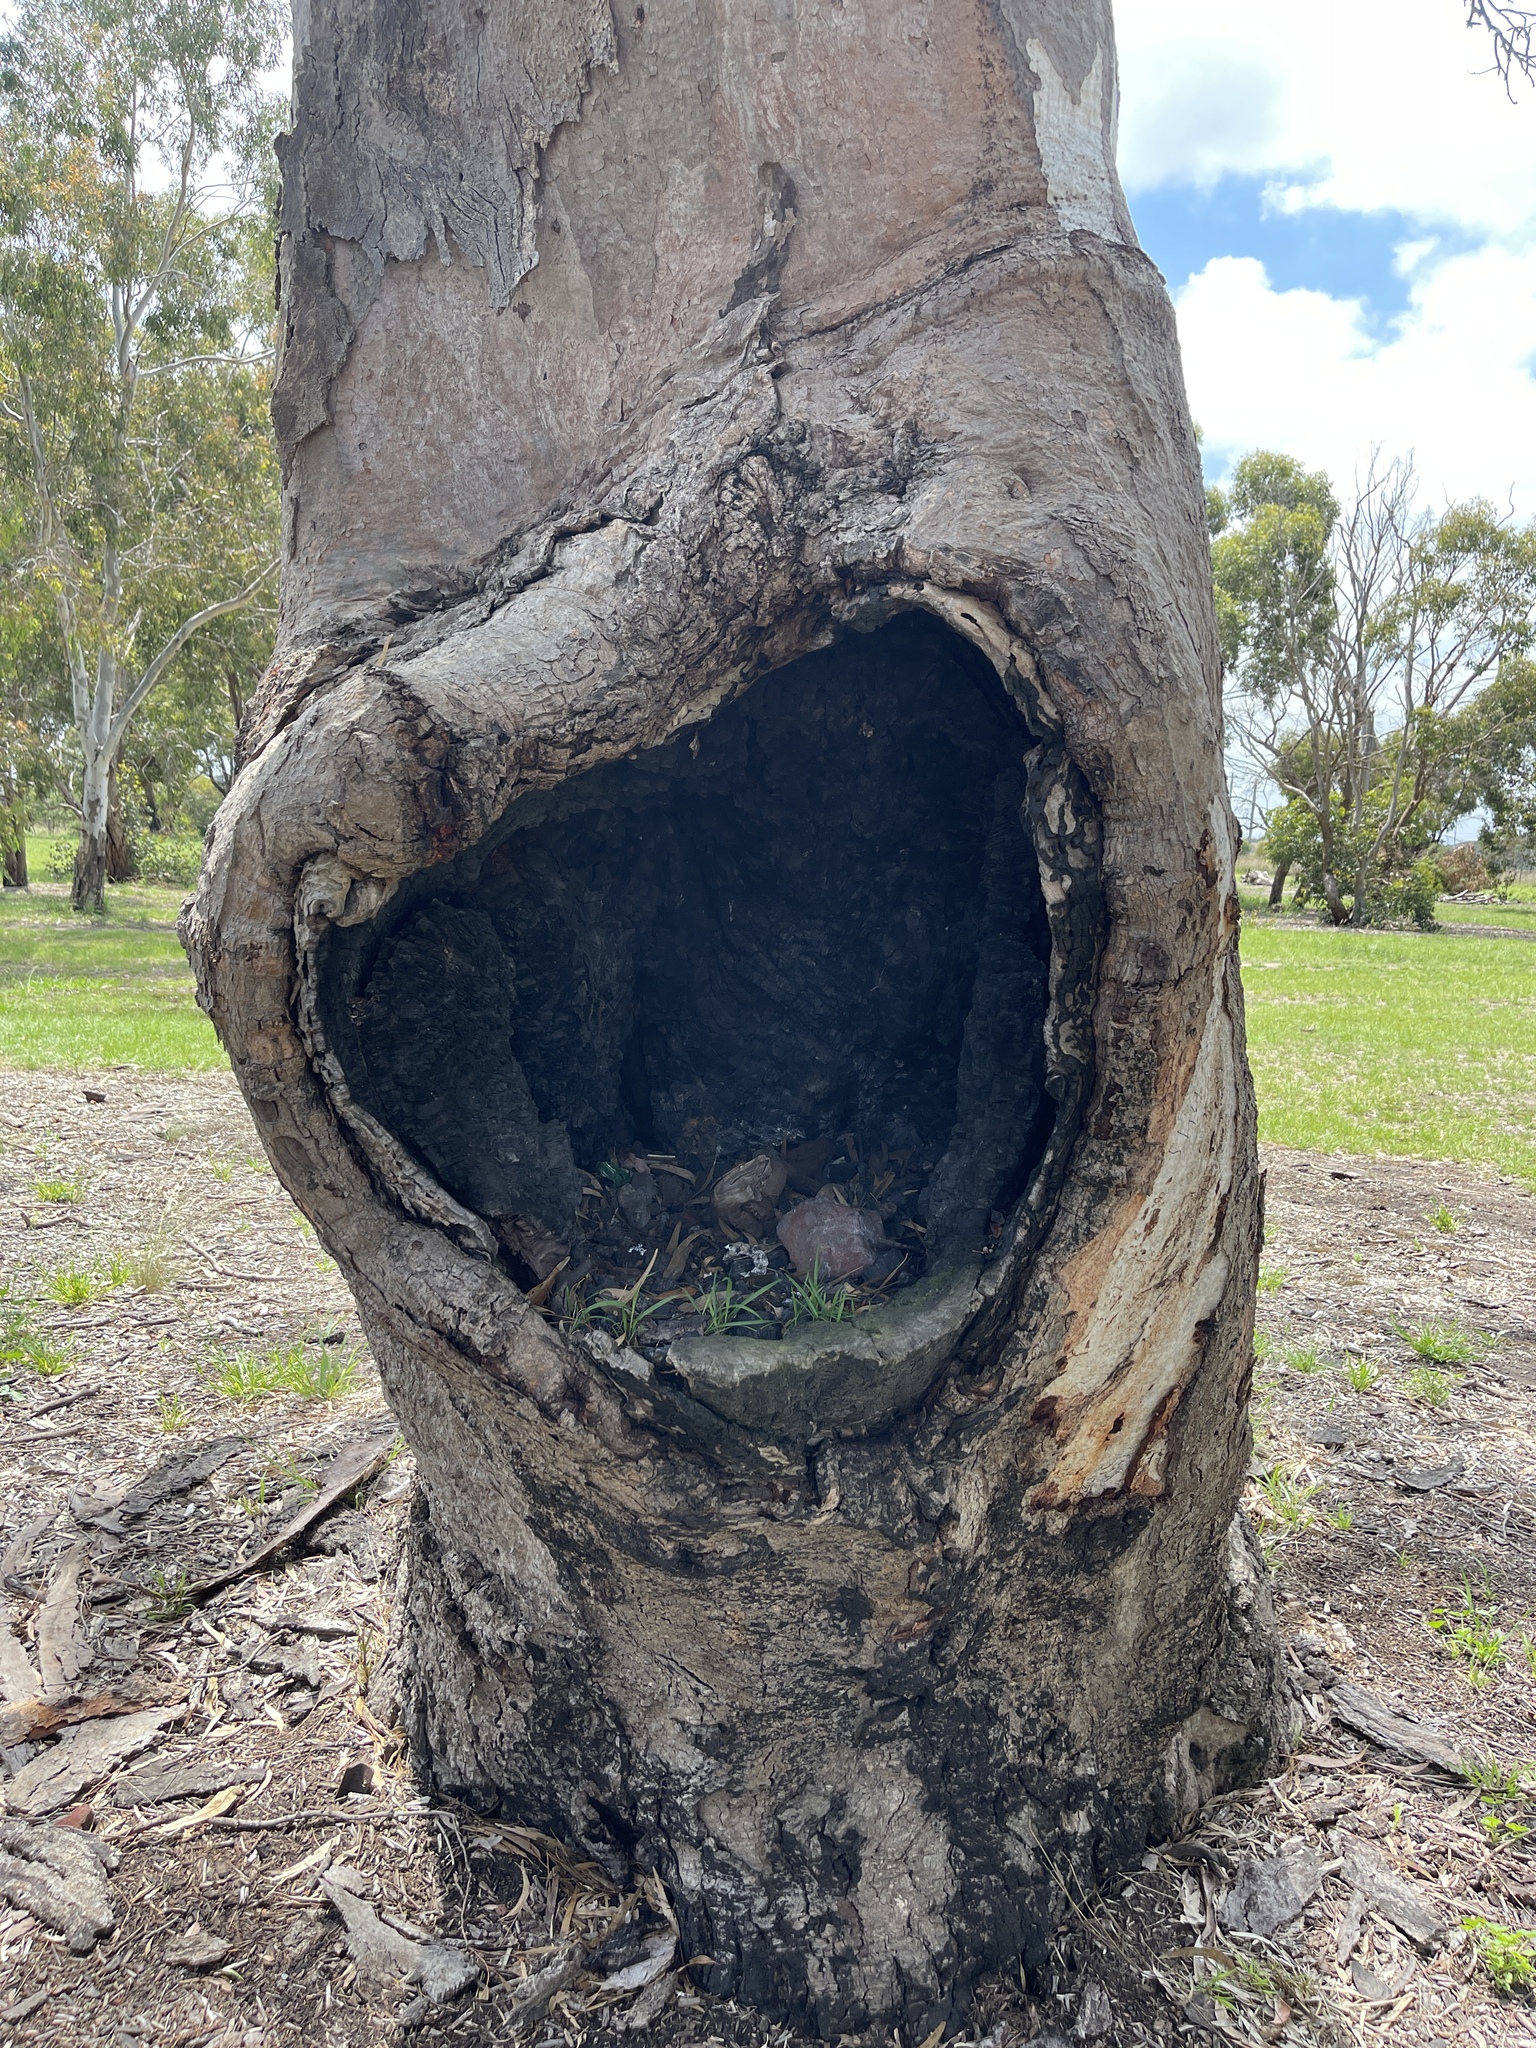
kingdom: Plantae
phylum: Tracheophyta
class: Magnoliopsida
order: Myrtales
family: Myrtaceae
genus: Eucalyptus
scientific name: Eucalyptus camaldulensis
